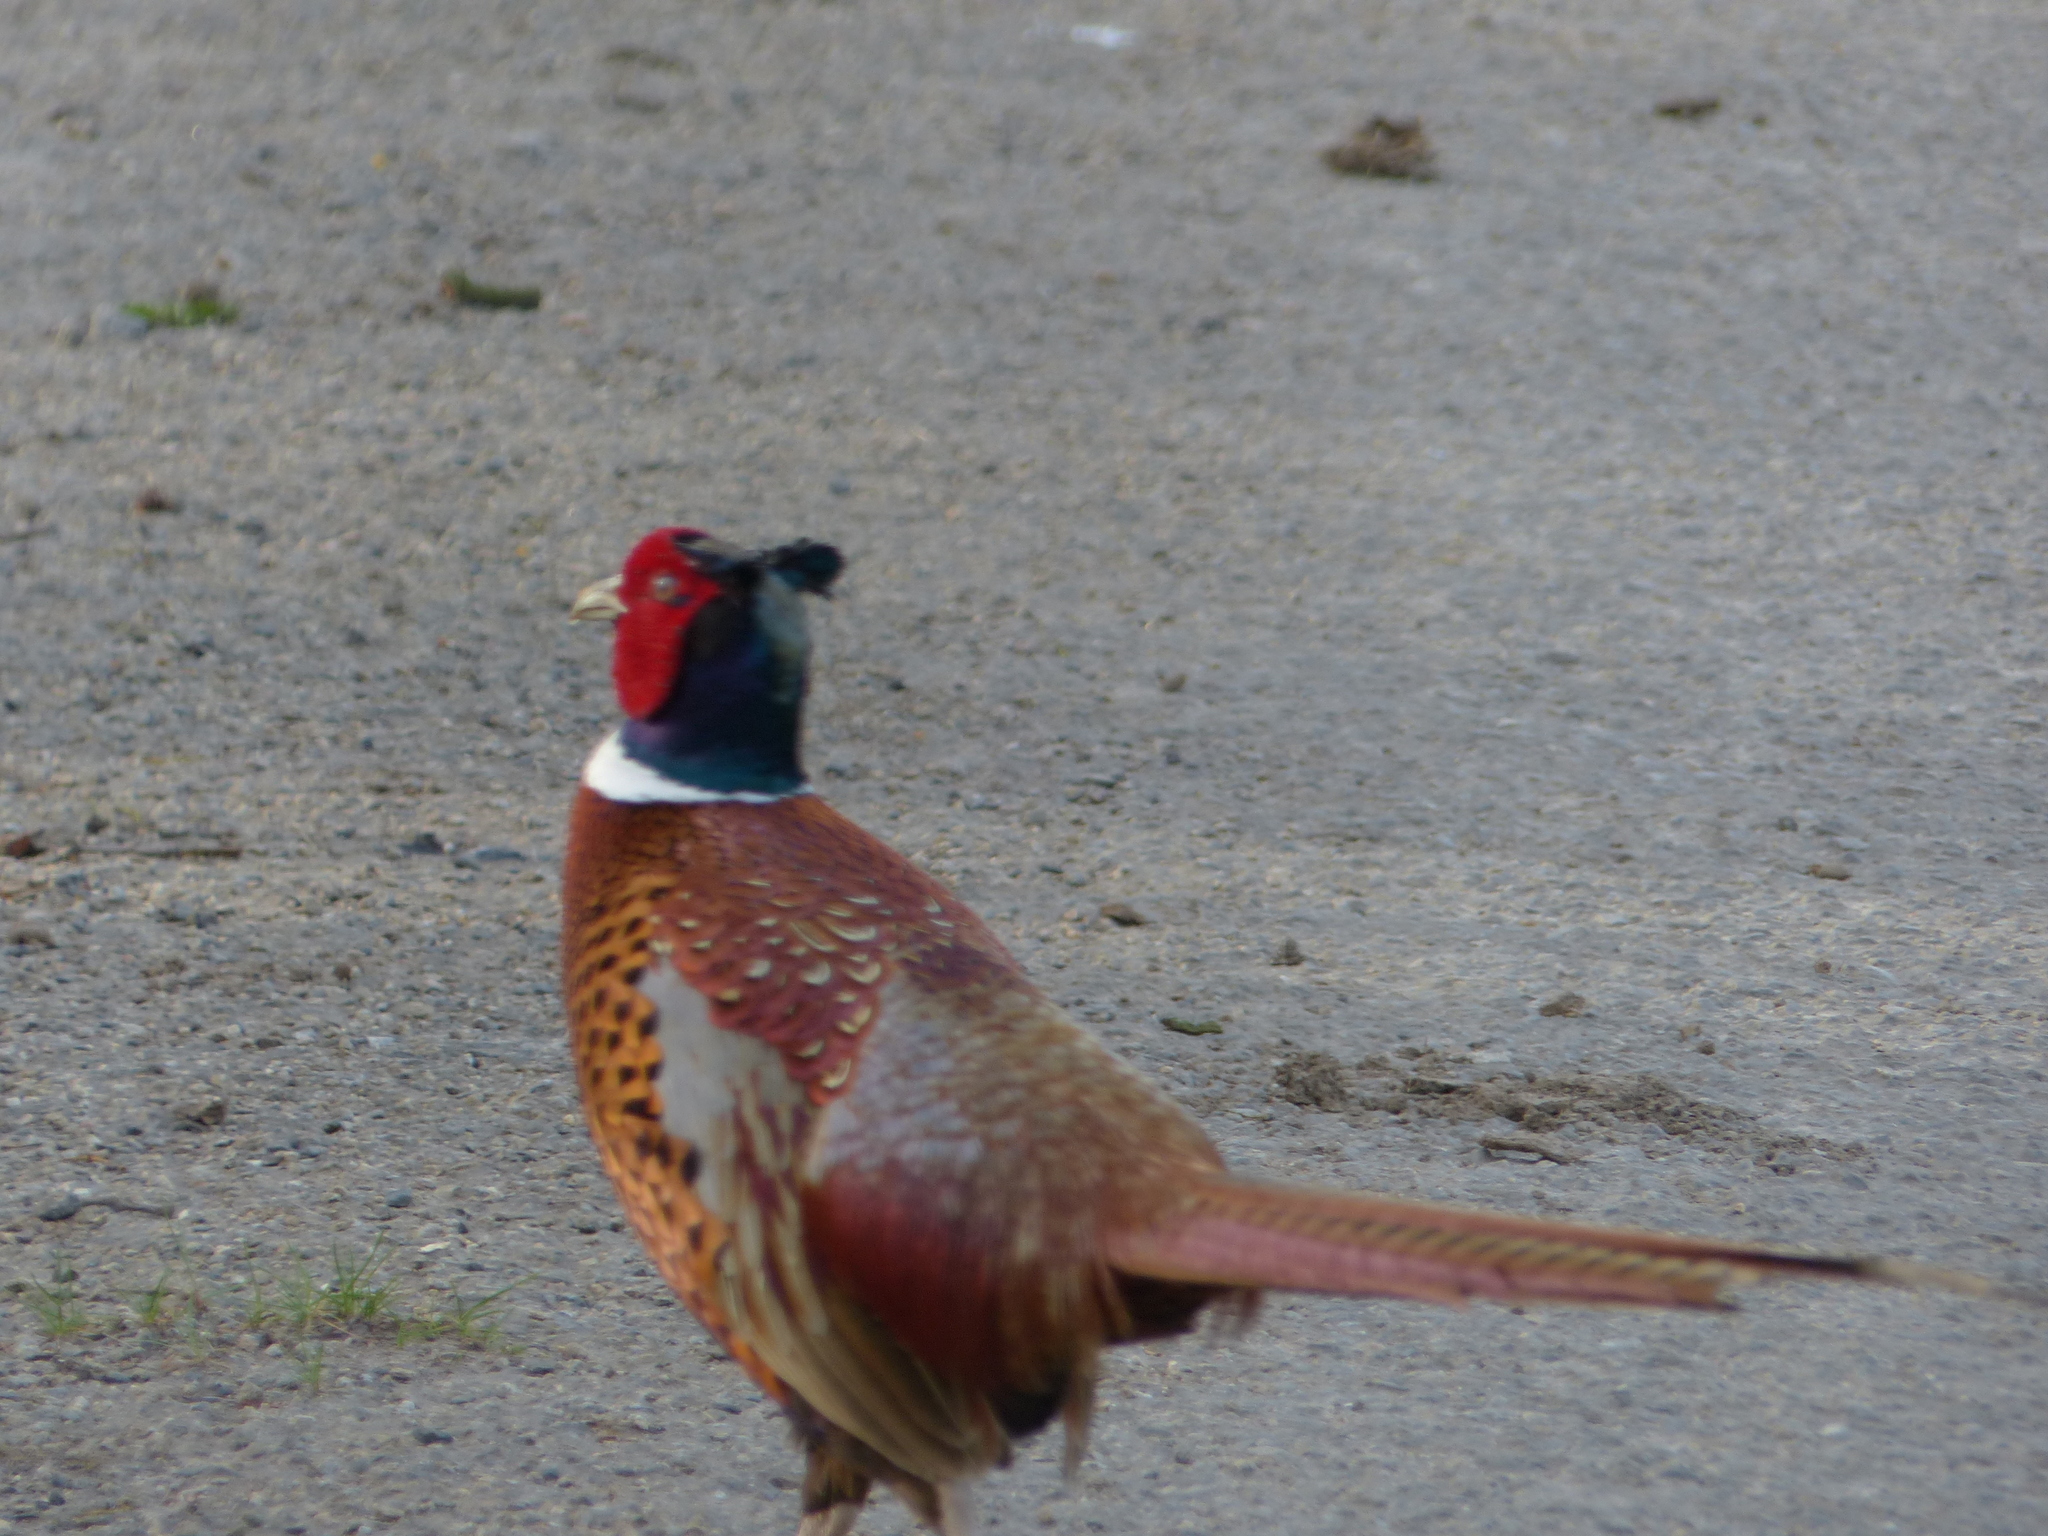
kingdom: Animalia
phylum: Chordata
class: Aves
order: Galliformes
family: Phasianidae
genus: Phasianus
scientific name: Phasianus colchicus
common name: Common pheasant
